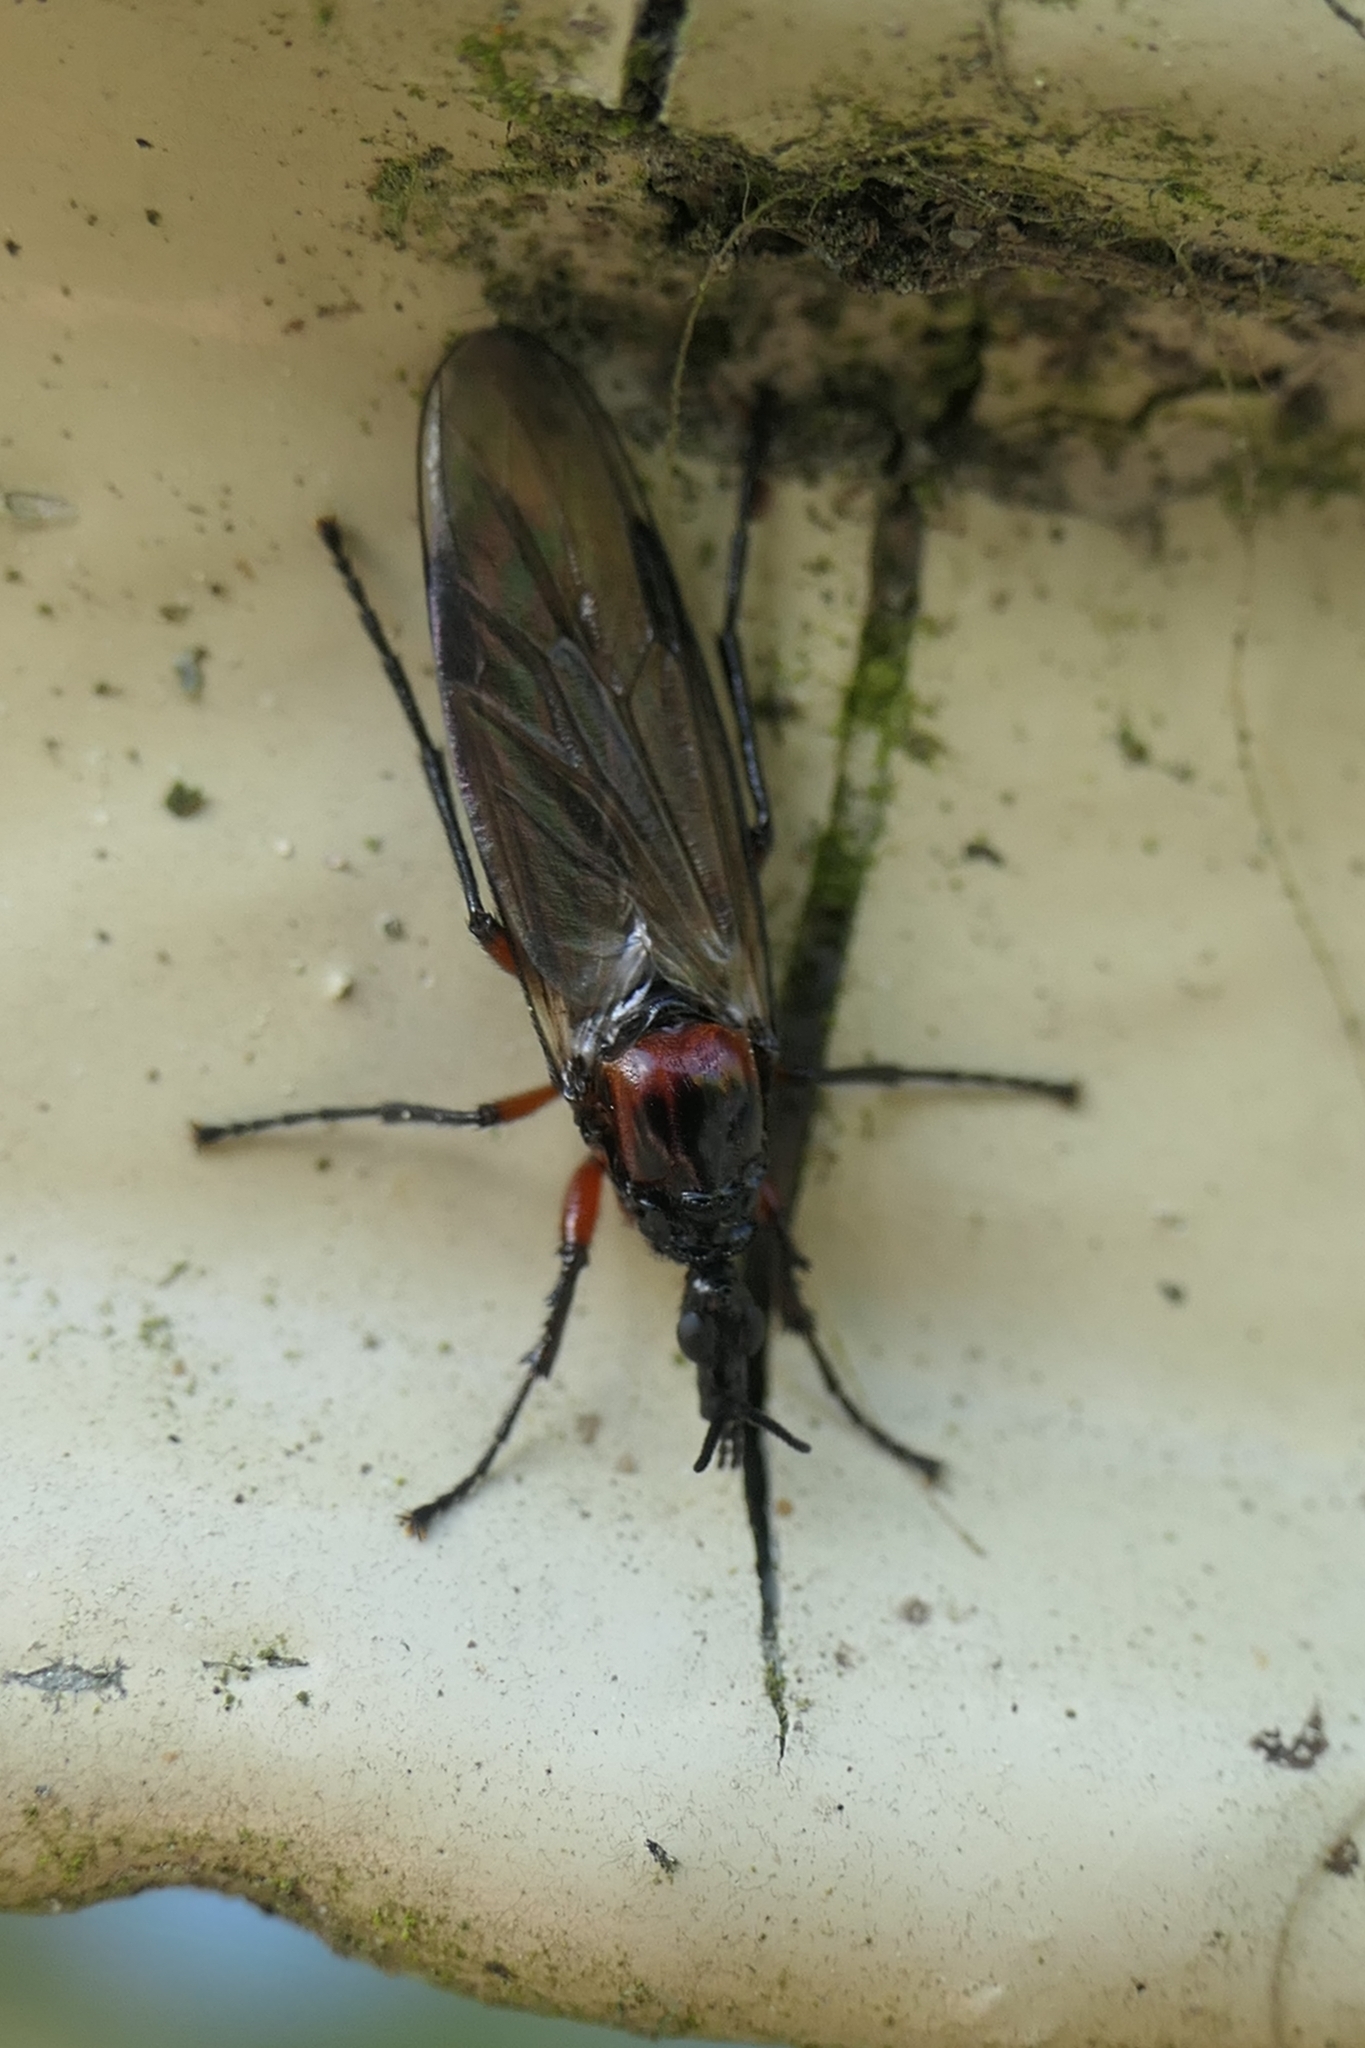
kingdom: Animalia
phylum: Arthropoda
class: Insecta
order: Diptera
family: Bibionidae
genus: Dilophus
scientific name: Dilophus nigrostigma
